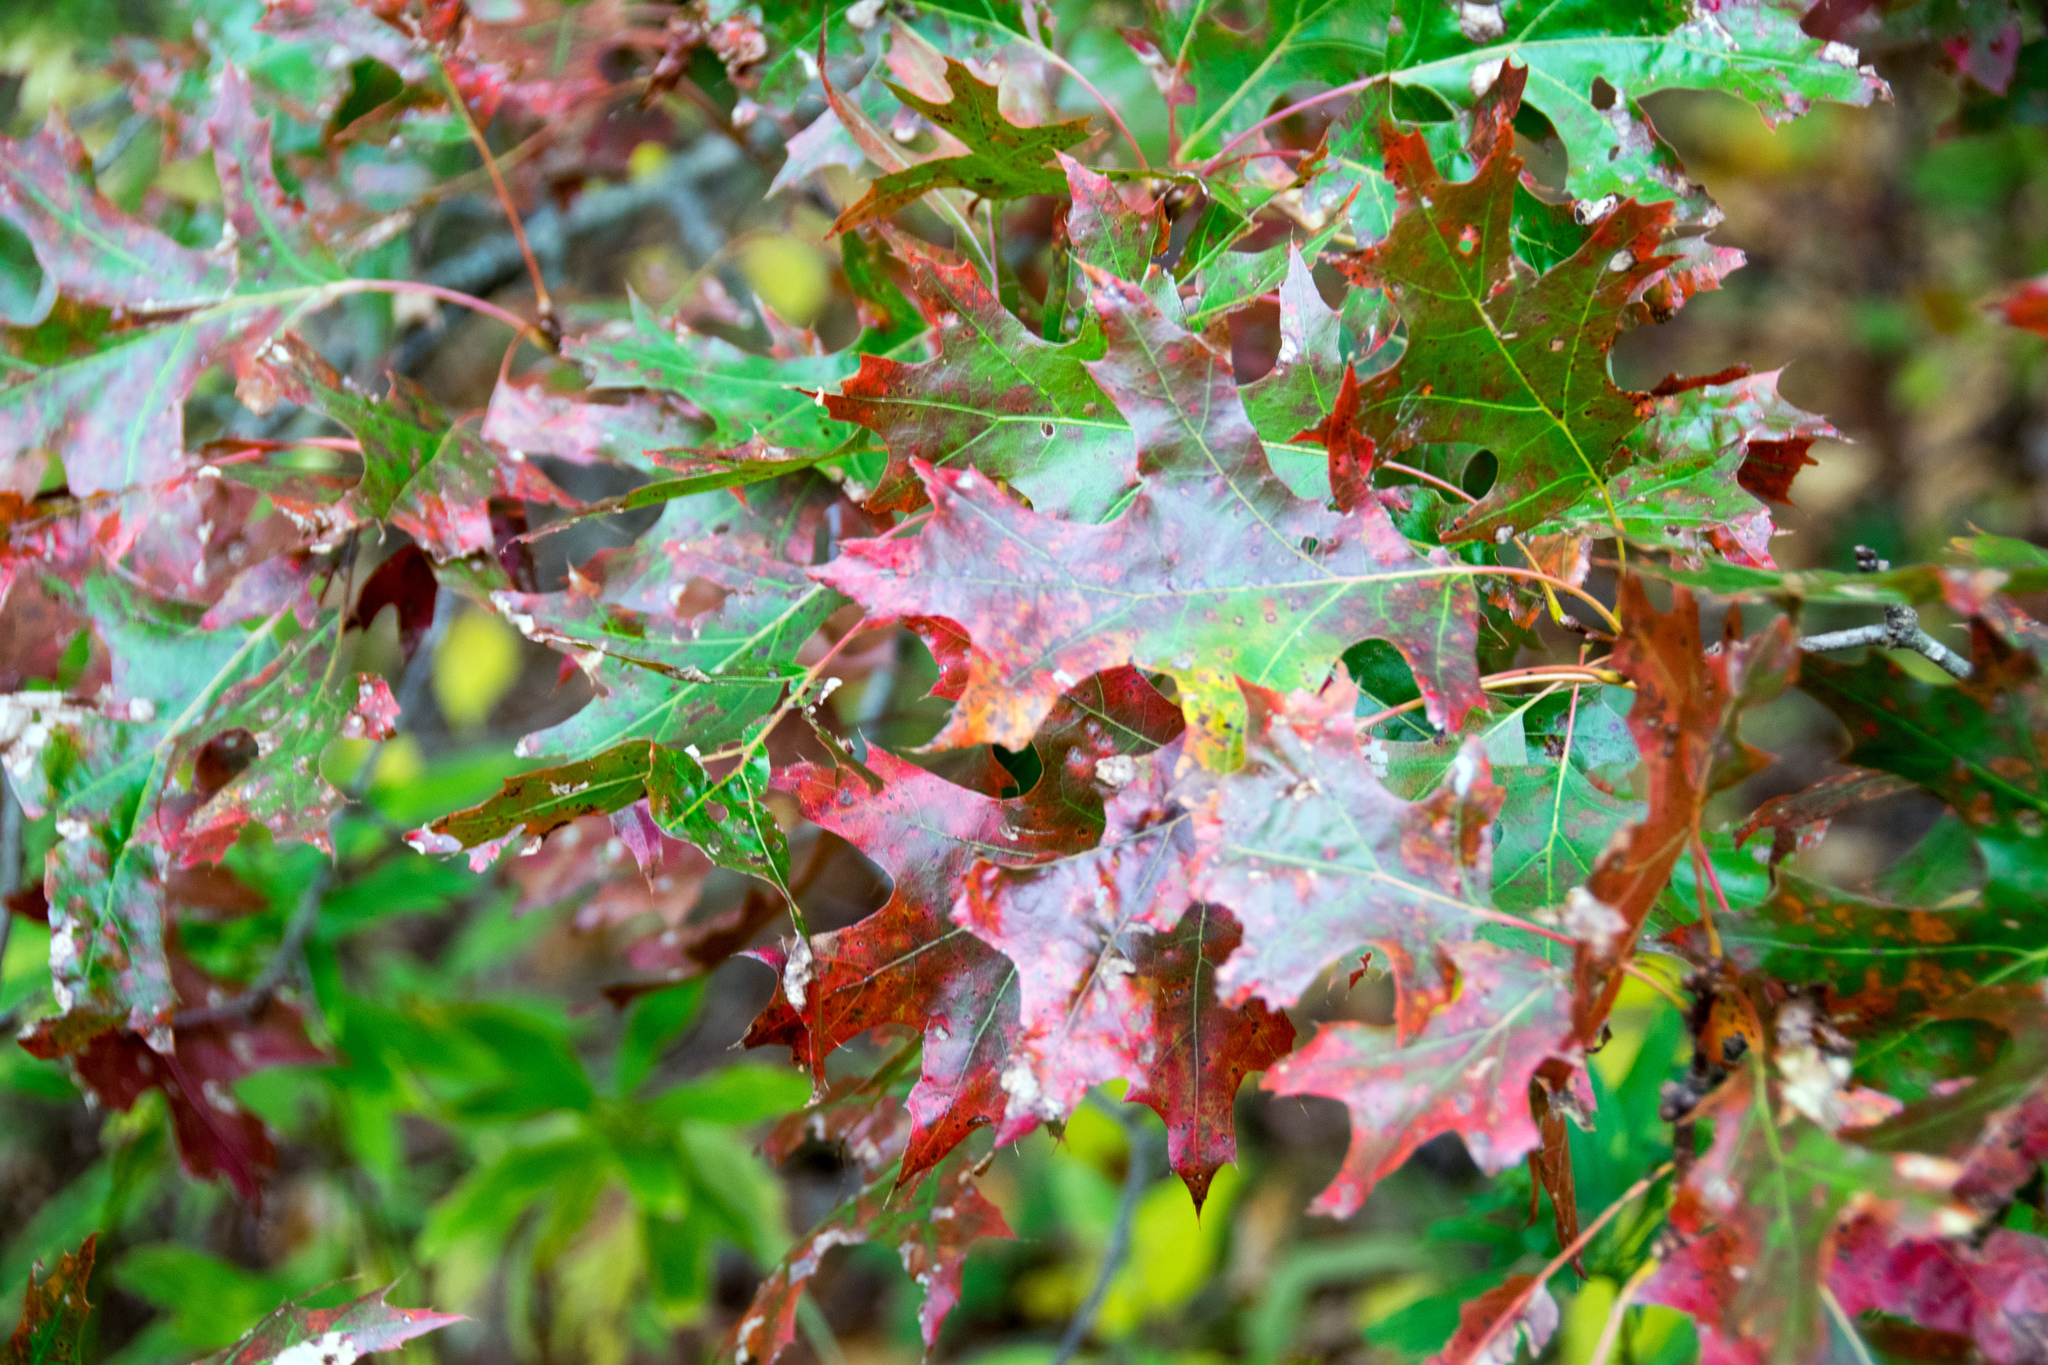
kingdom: Plantae
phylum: Tracheophyta
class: Magnoliopsida
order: Fagales
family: Fagaceae
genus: Quercus
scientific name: Quercus coccinea
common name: Scarlet oak
